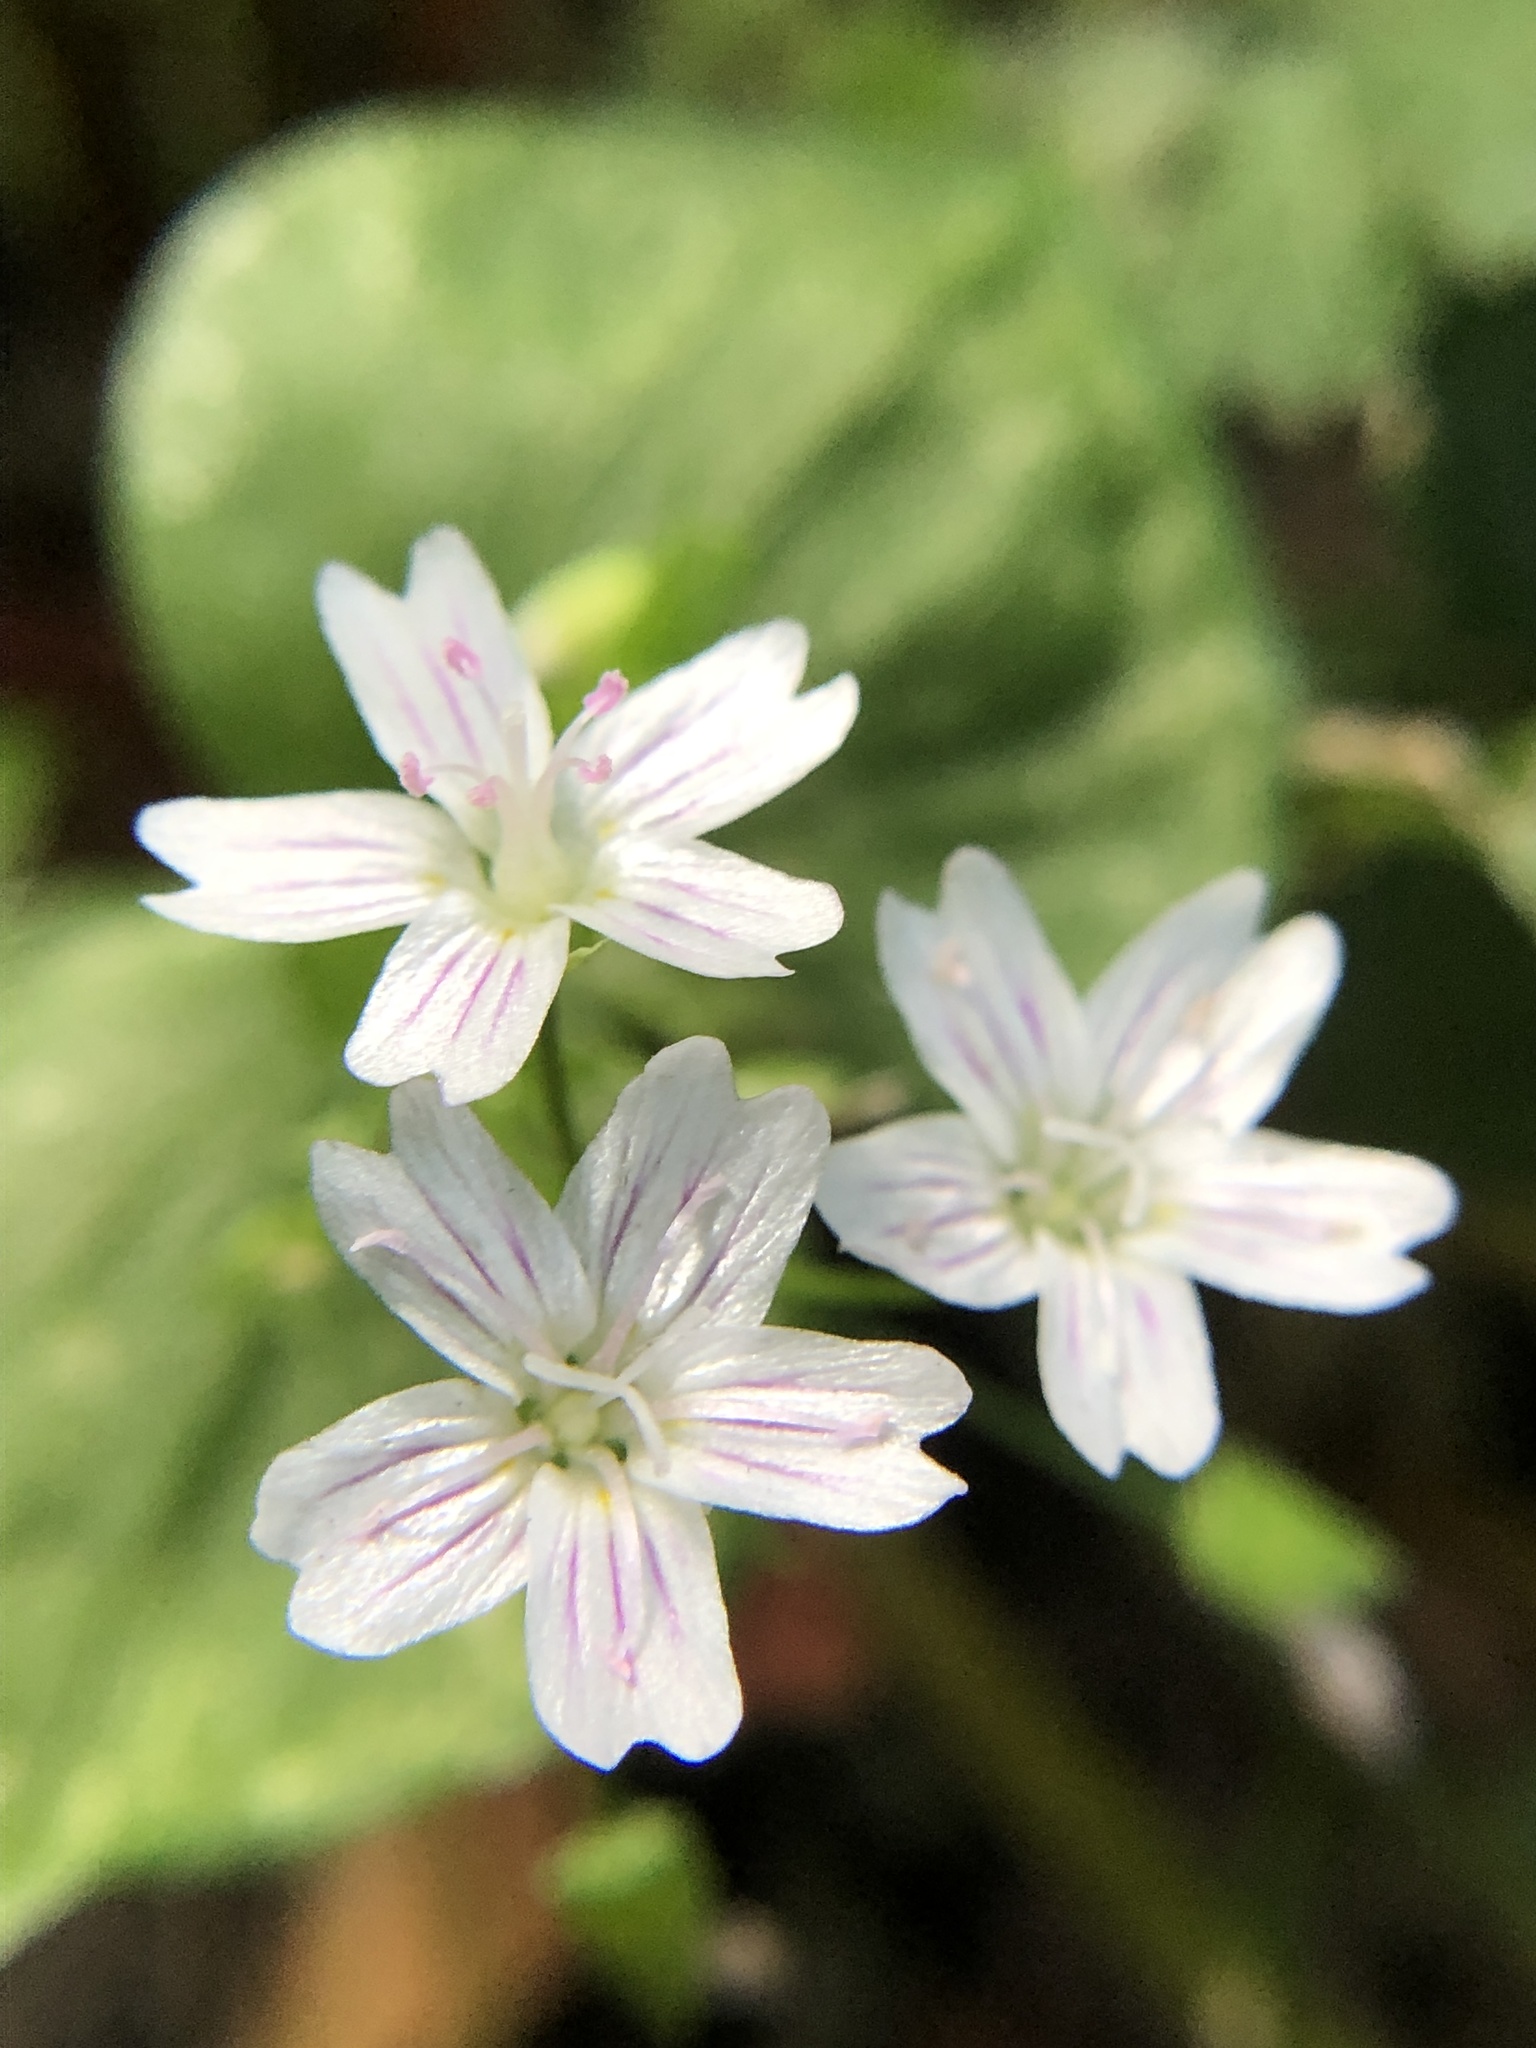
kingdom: Plantae
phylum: Tracheophyta
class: Magnoliopsida
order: Caryophyllales
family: Montiaceae
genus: Claytonia
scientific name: Claytonia sibirica
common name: Pink purslane
